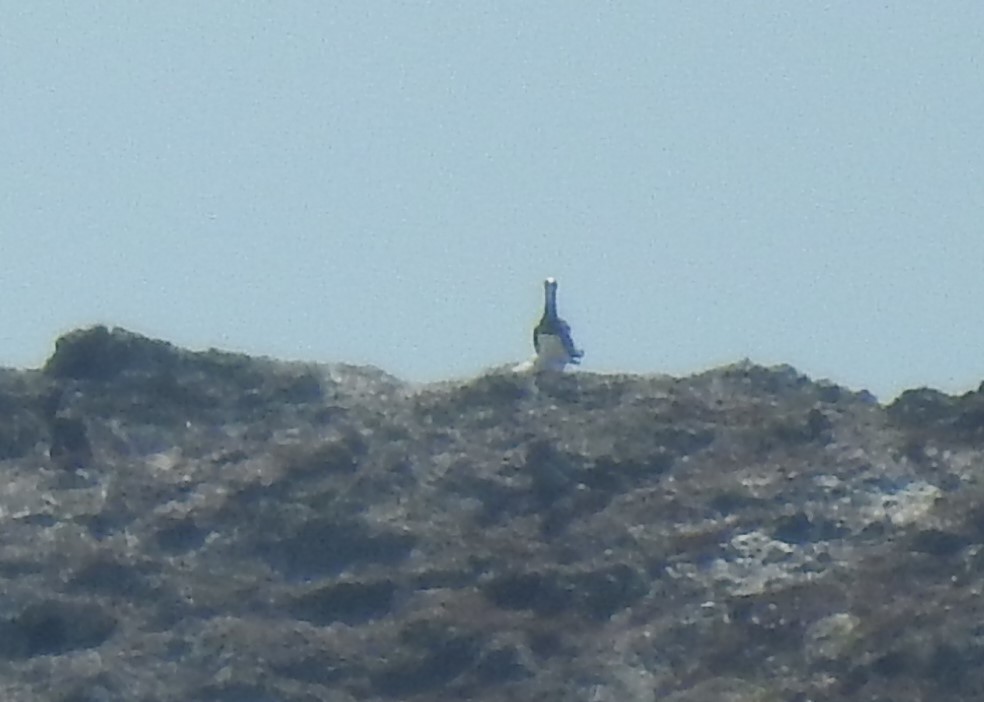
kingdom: Animalia
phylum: Chordata
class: Aves
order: Suliformes
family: Sulidae
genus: Sula
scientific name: Sula leucogaster
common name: Brown booby
